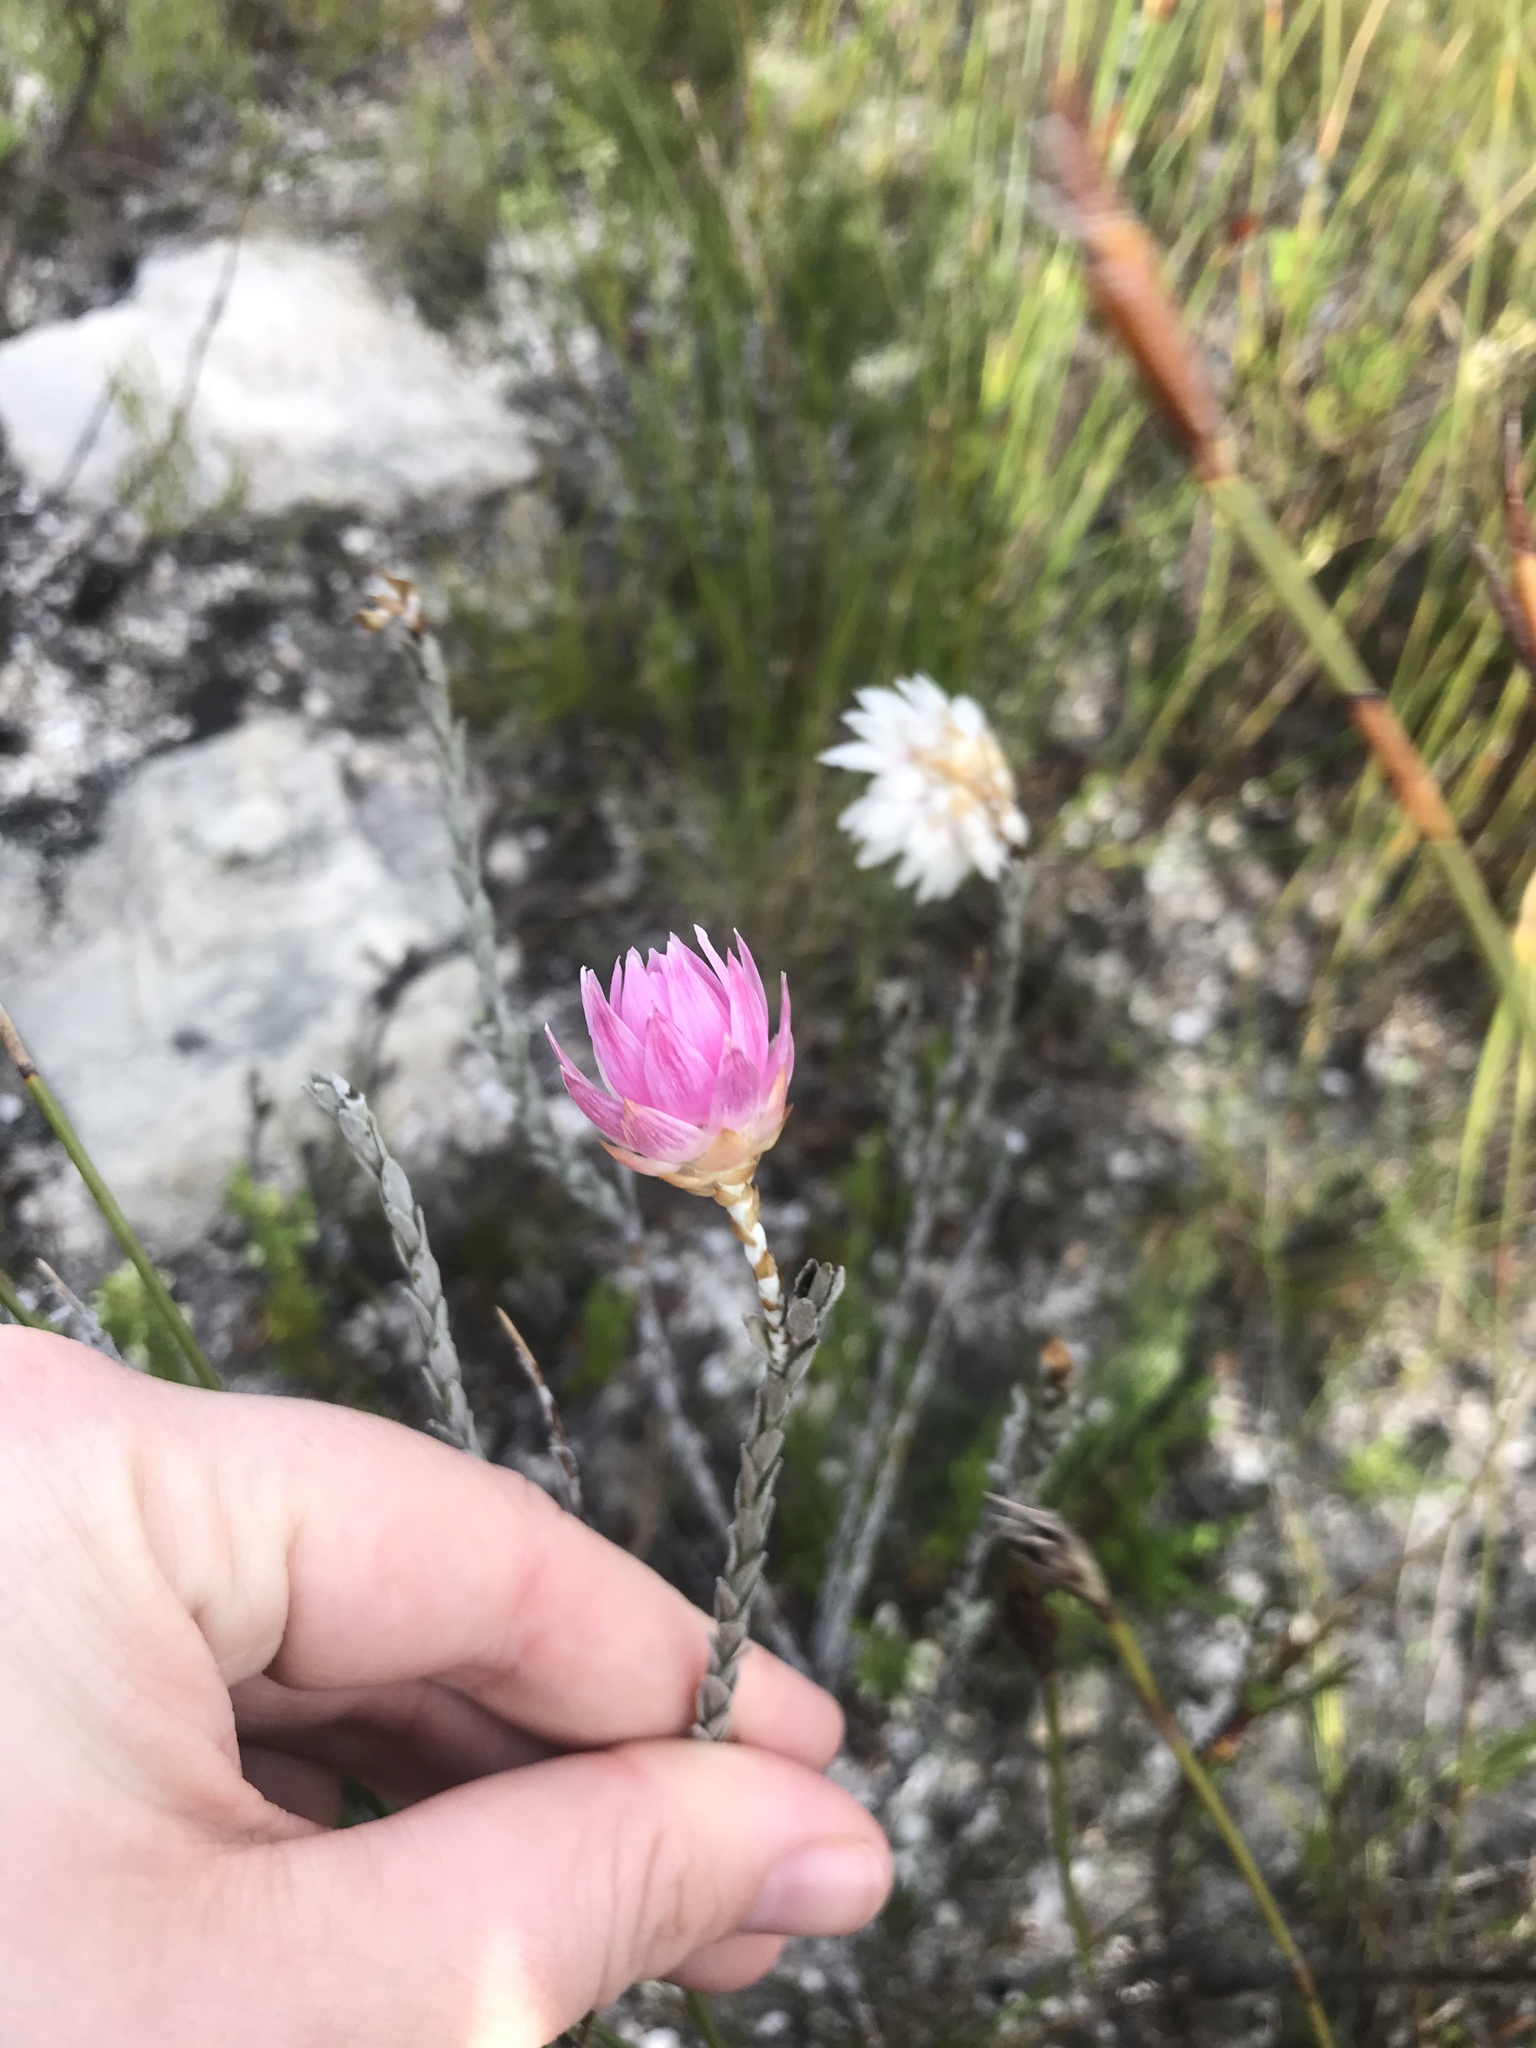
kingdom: Plantae
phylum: Tracheophyta
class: Magnoliopsida
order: Asterales
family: Asteraceae
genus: Syncarpha
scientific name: Syncarpha canescens
